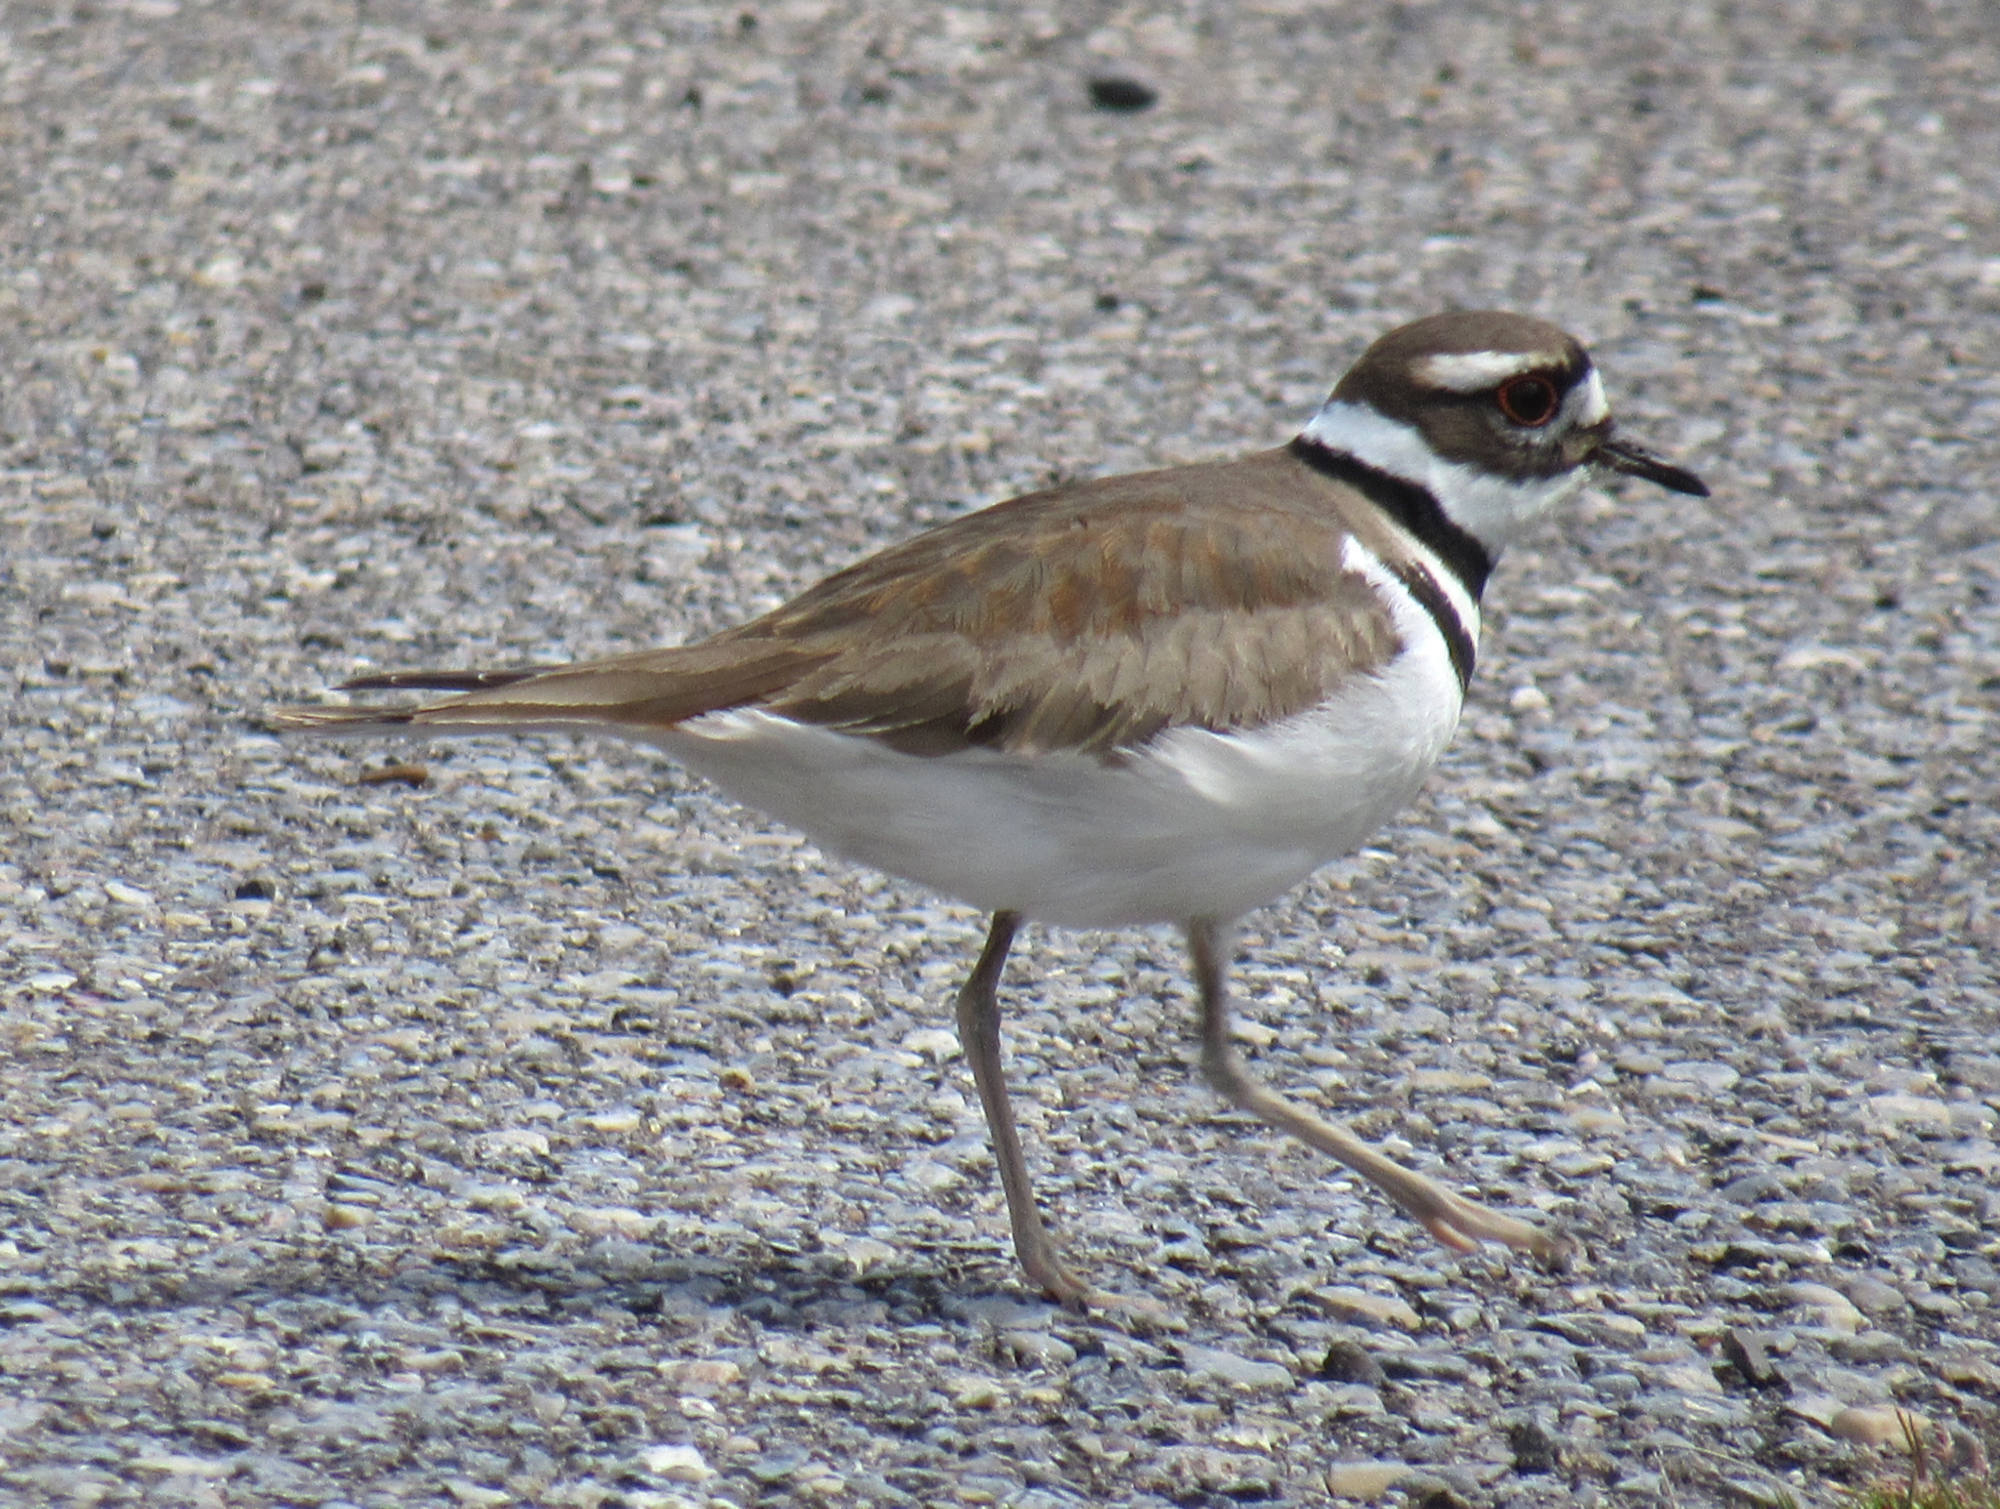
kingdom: Animalia
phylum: Chordata
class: Aves
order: Charadriiformes
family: Charadriidae
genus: Charadrius
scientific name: Charadrius vociferus
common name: Killdeer
